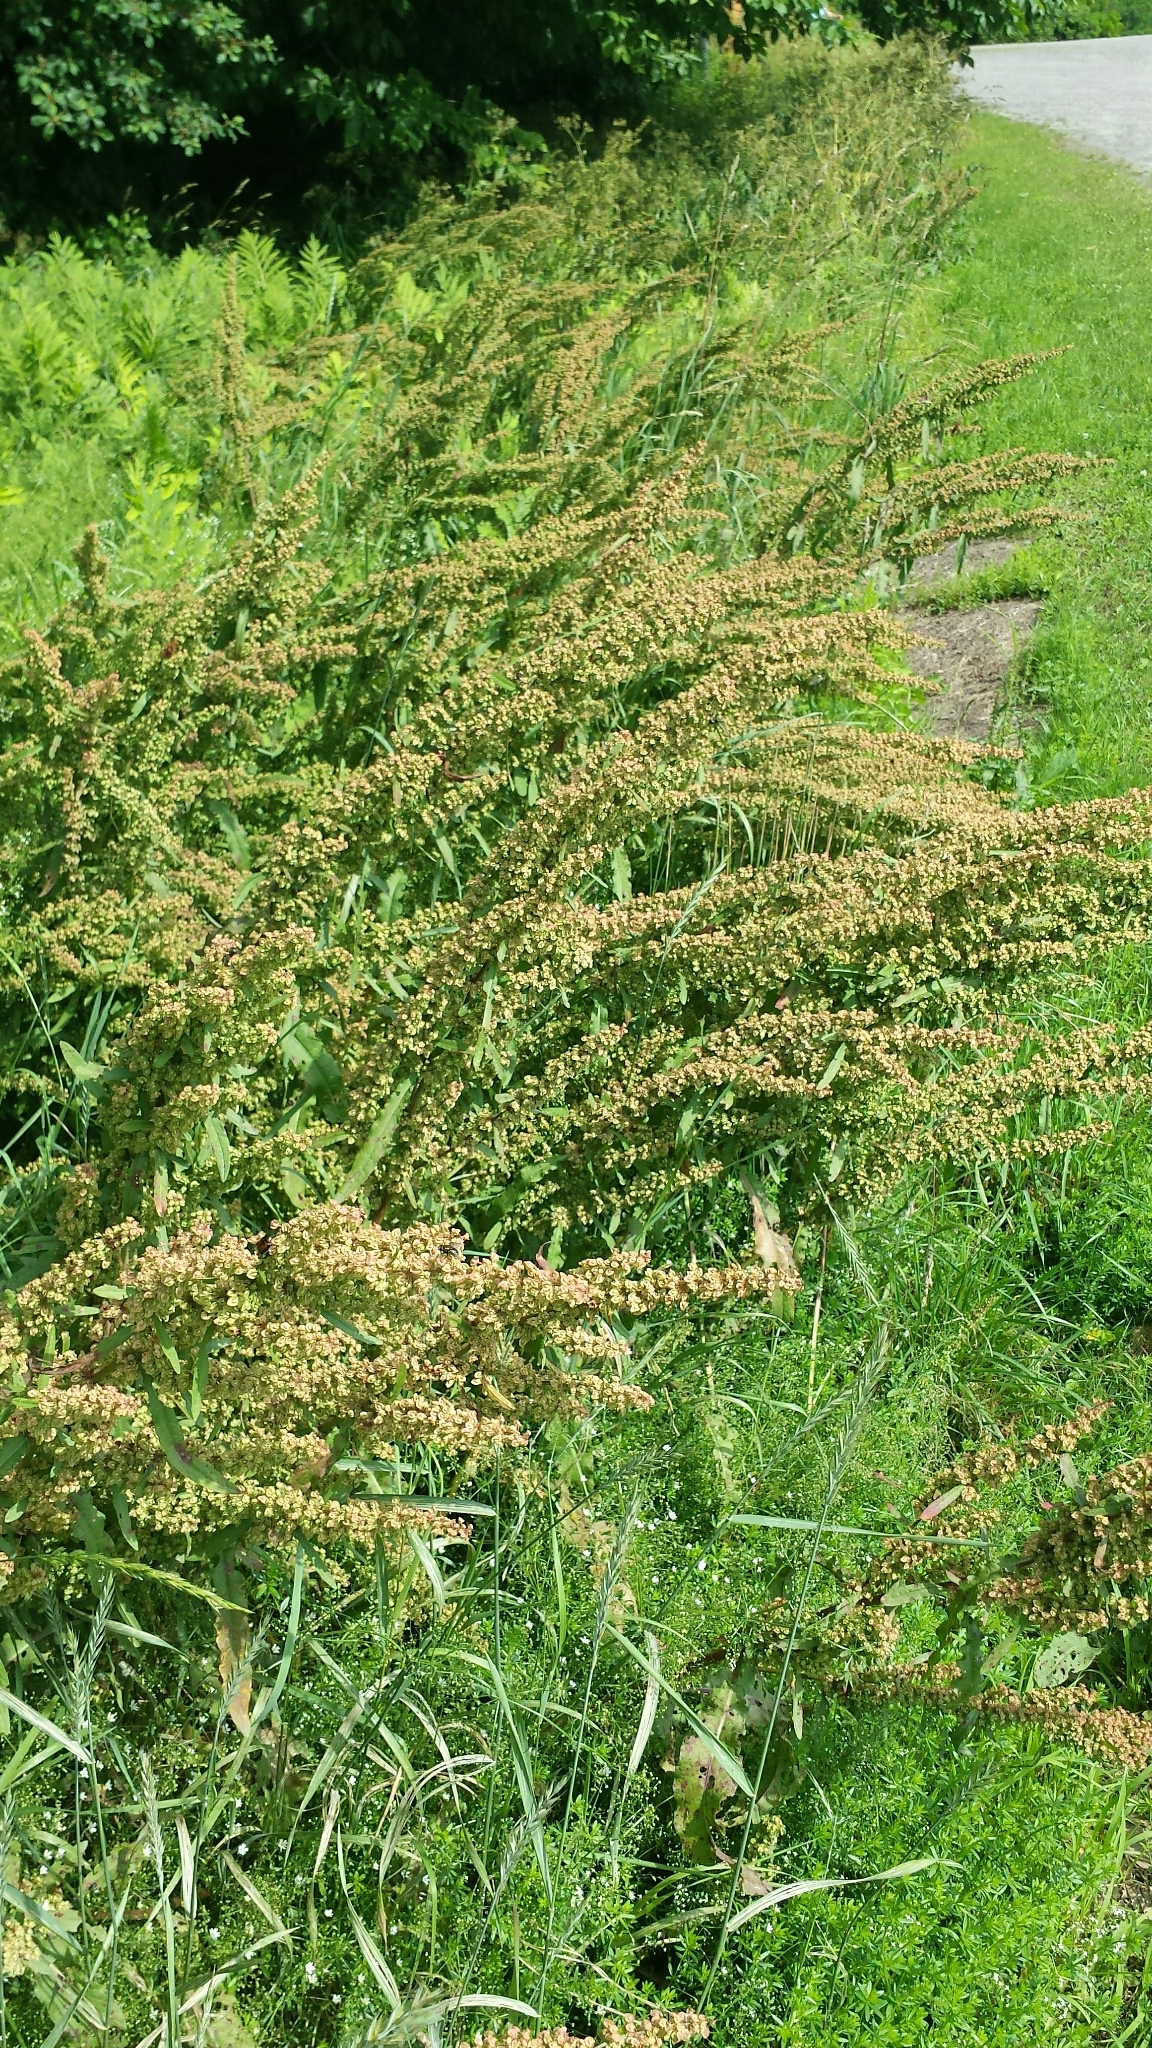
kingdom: Plantae
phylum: Tracheophyta
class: Magnoliopsida
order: Caryophyllales
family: Polygonaceae
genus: Rumex
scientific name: Rumex crispus
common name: Curled dock
